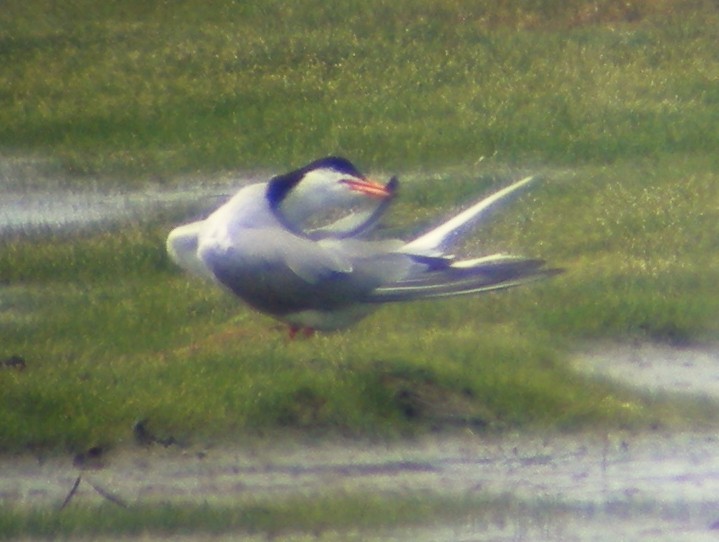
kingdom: Animalia
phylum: Chordata
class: Aves
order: Charadriiformes
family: Laridae
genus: Sterna
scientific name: Sterna hirundo
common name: Common tern
